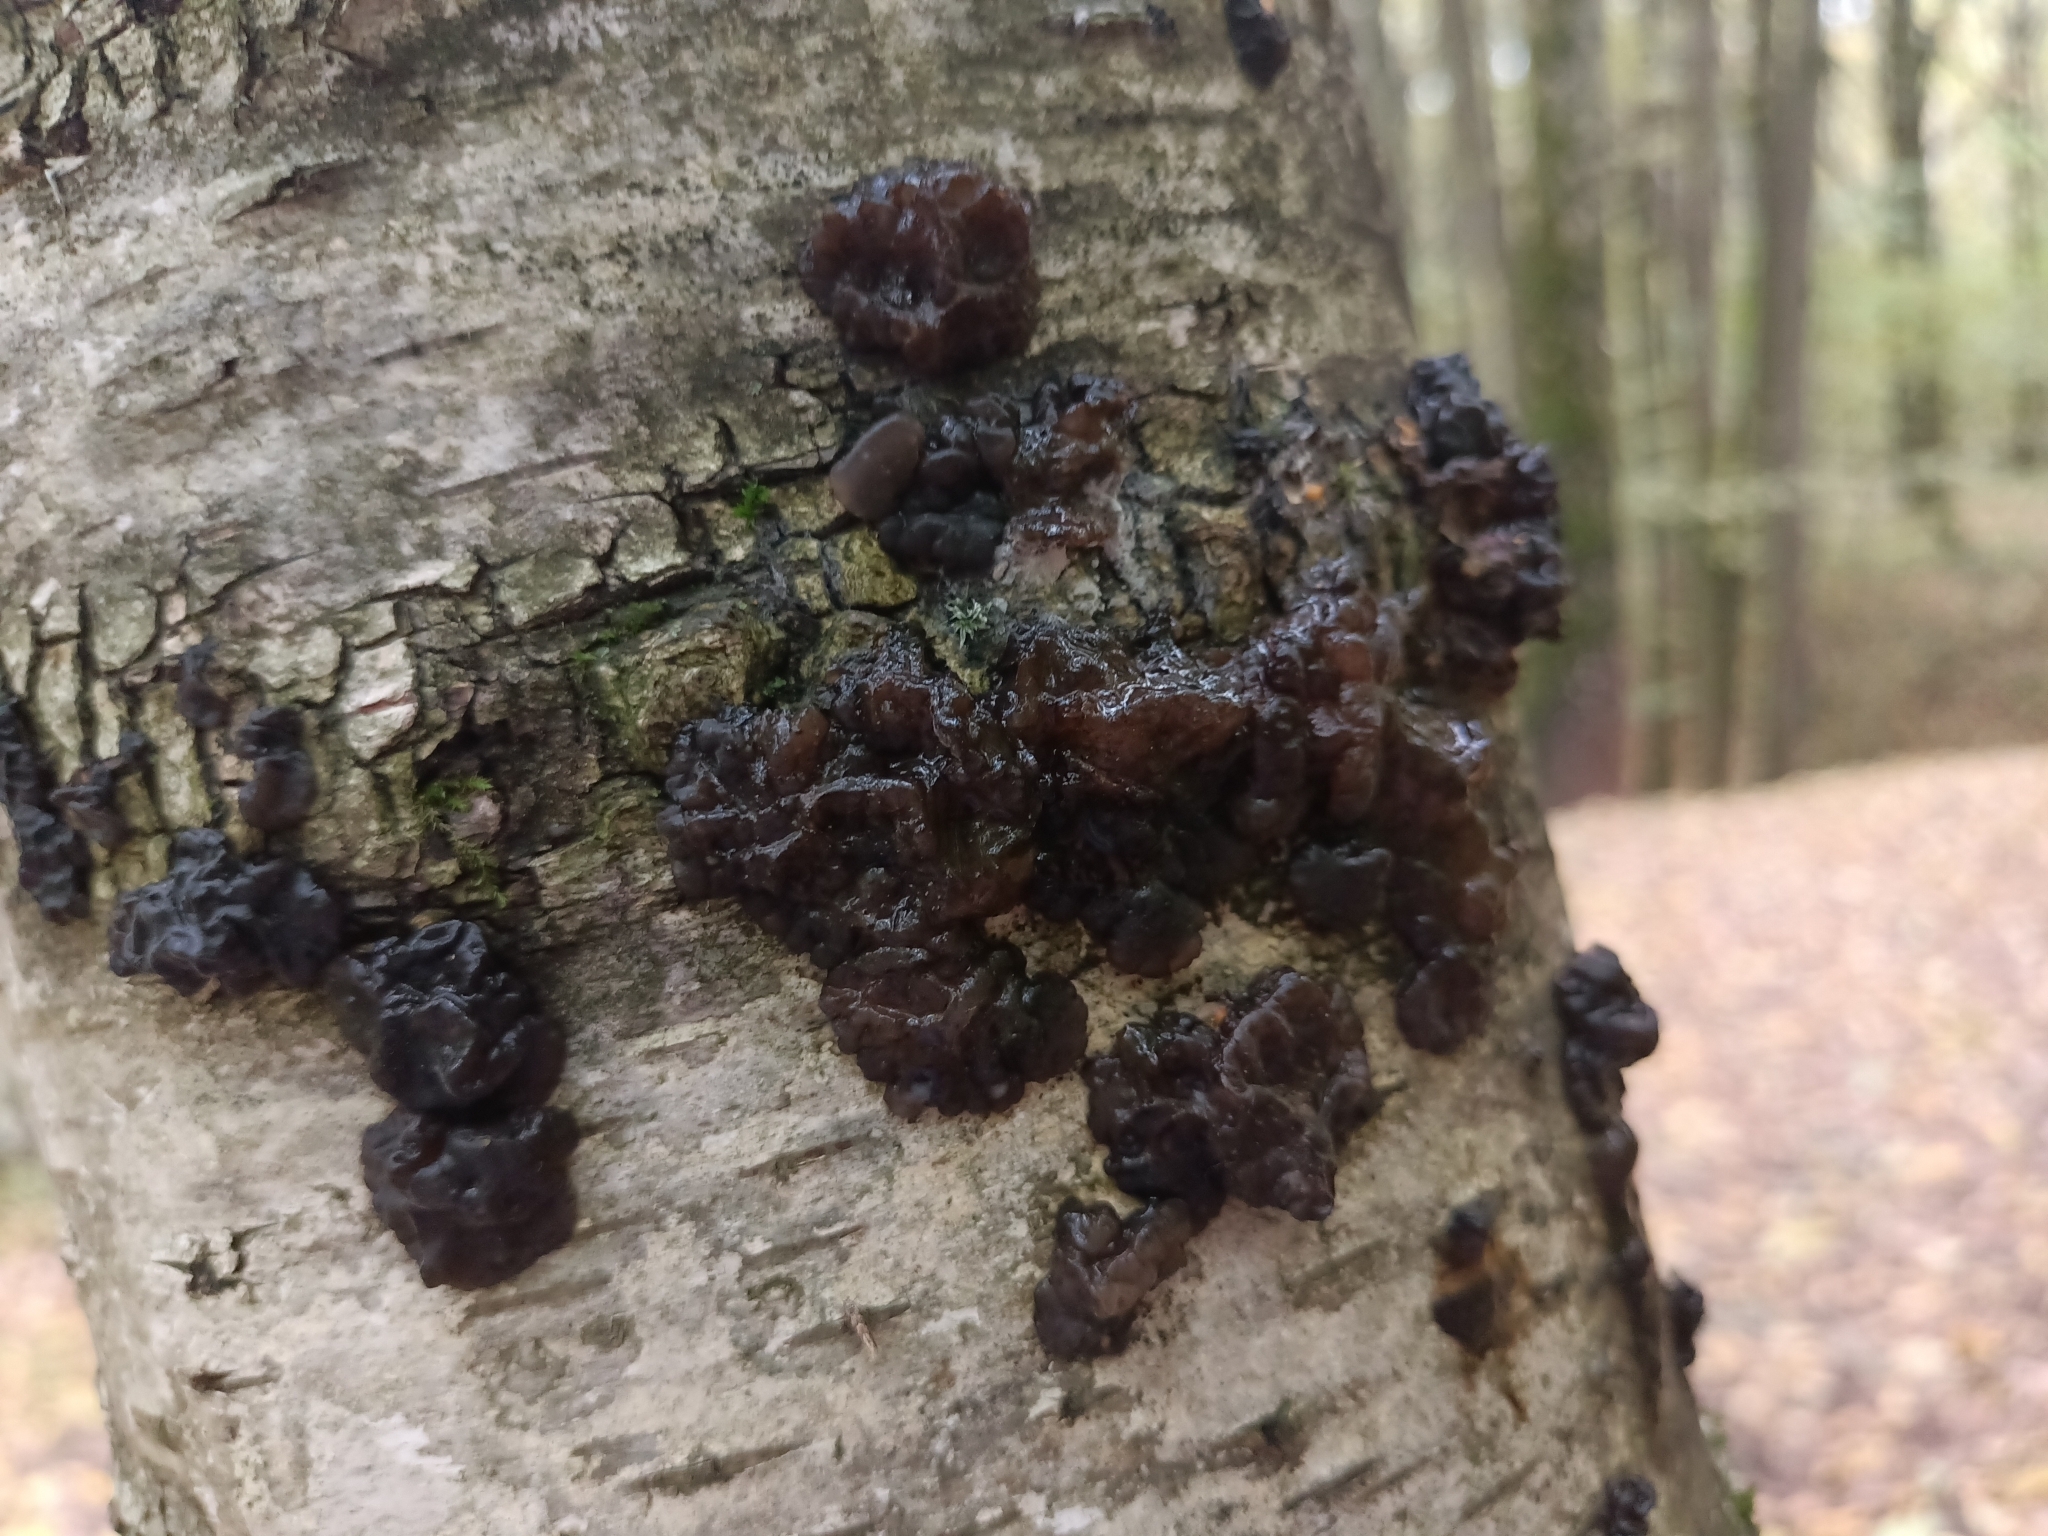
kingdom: Fungi
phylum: Basidiomycota
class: Agaricomycetes
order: Auriculariales
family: Auriculariaceae
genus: Exidia
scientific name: Exidia nigricans
